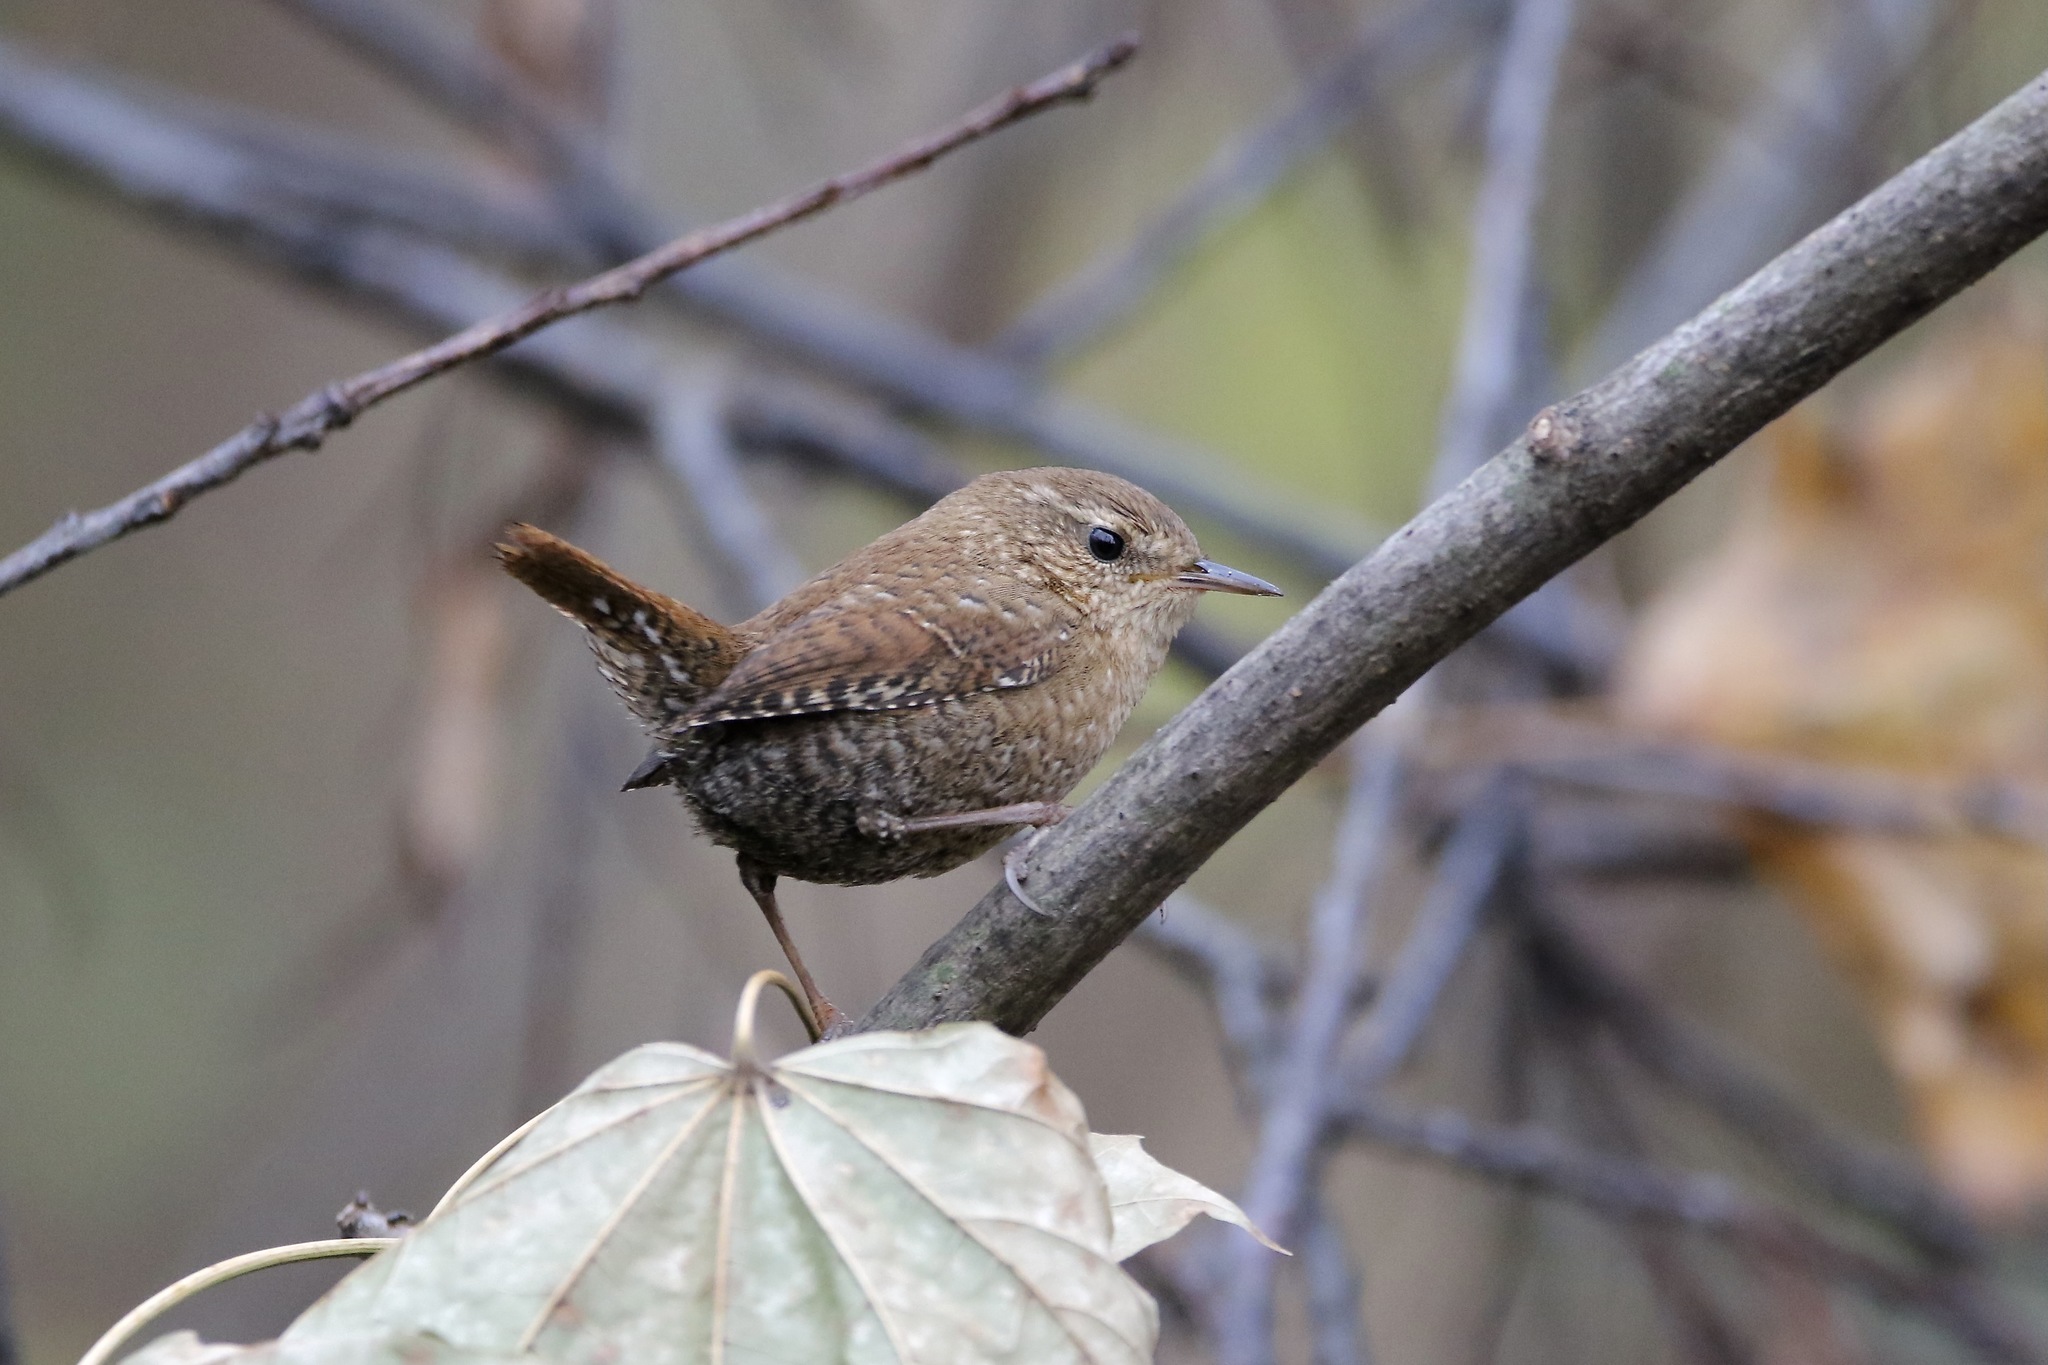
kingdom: Animalia
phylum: Chordata
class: Aves
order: Passeriformes
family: Troglodytidae
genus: Troglodytes
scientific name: Troglodytes hiemalis
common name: Winter wren
